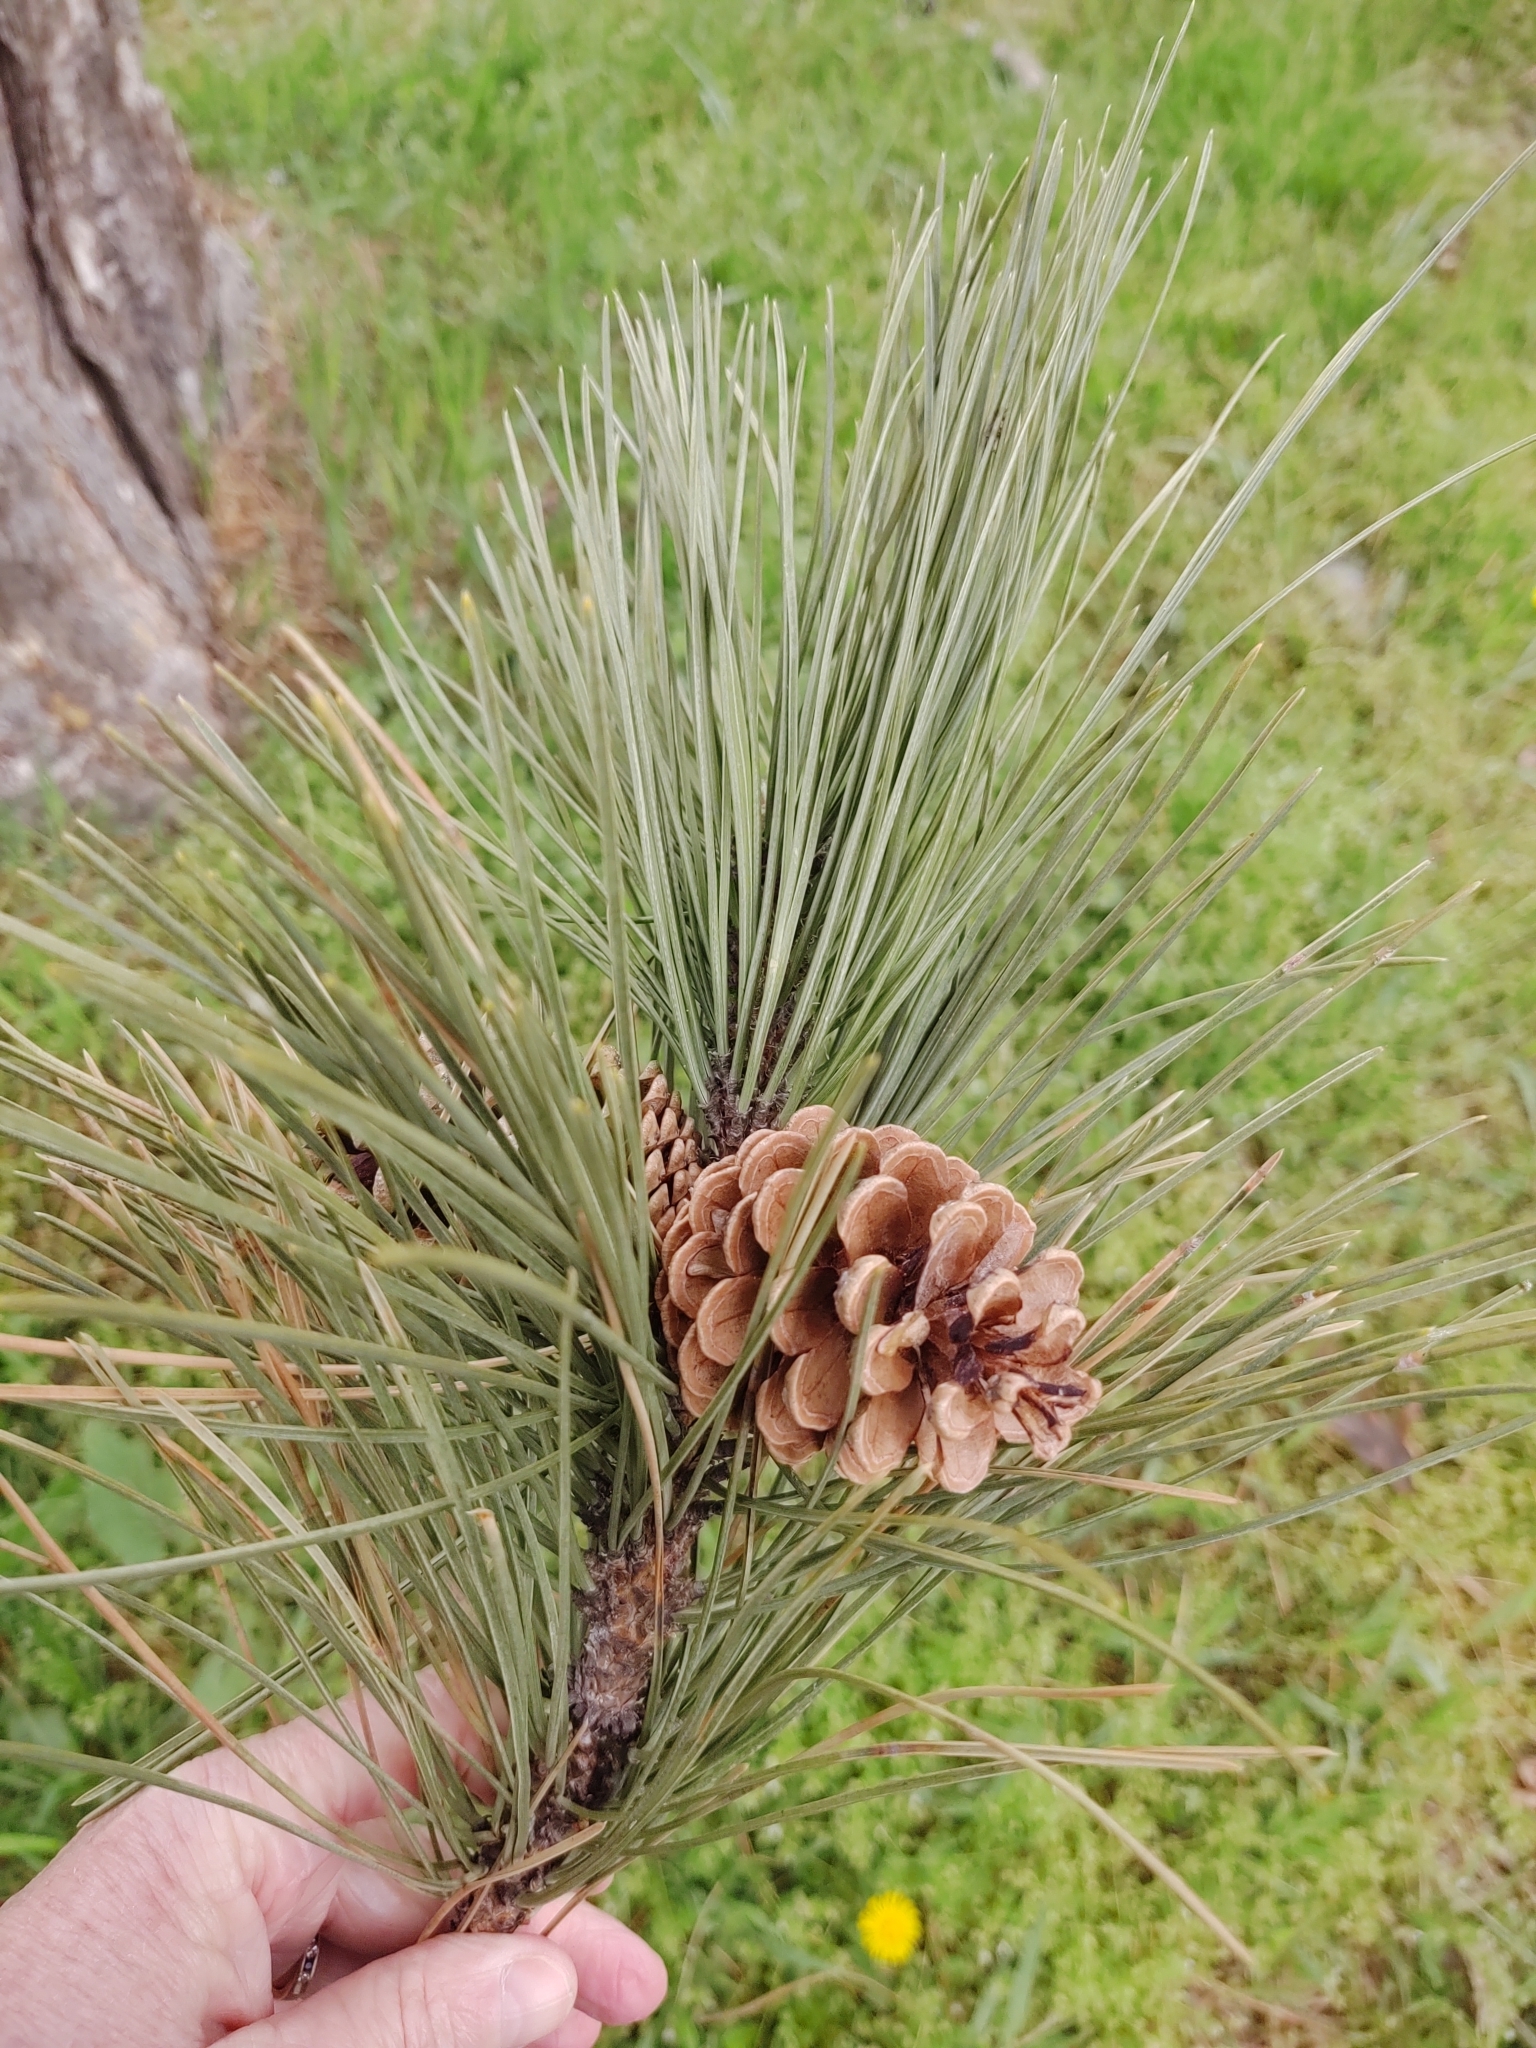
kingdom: Plantae
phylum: Tracheophyta
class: Pinopsida
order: Pinales
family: Pinaceae
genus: Pinus
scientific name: Pinus resinosa
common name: Norway pine
